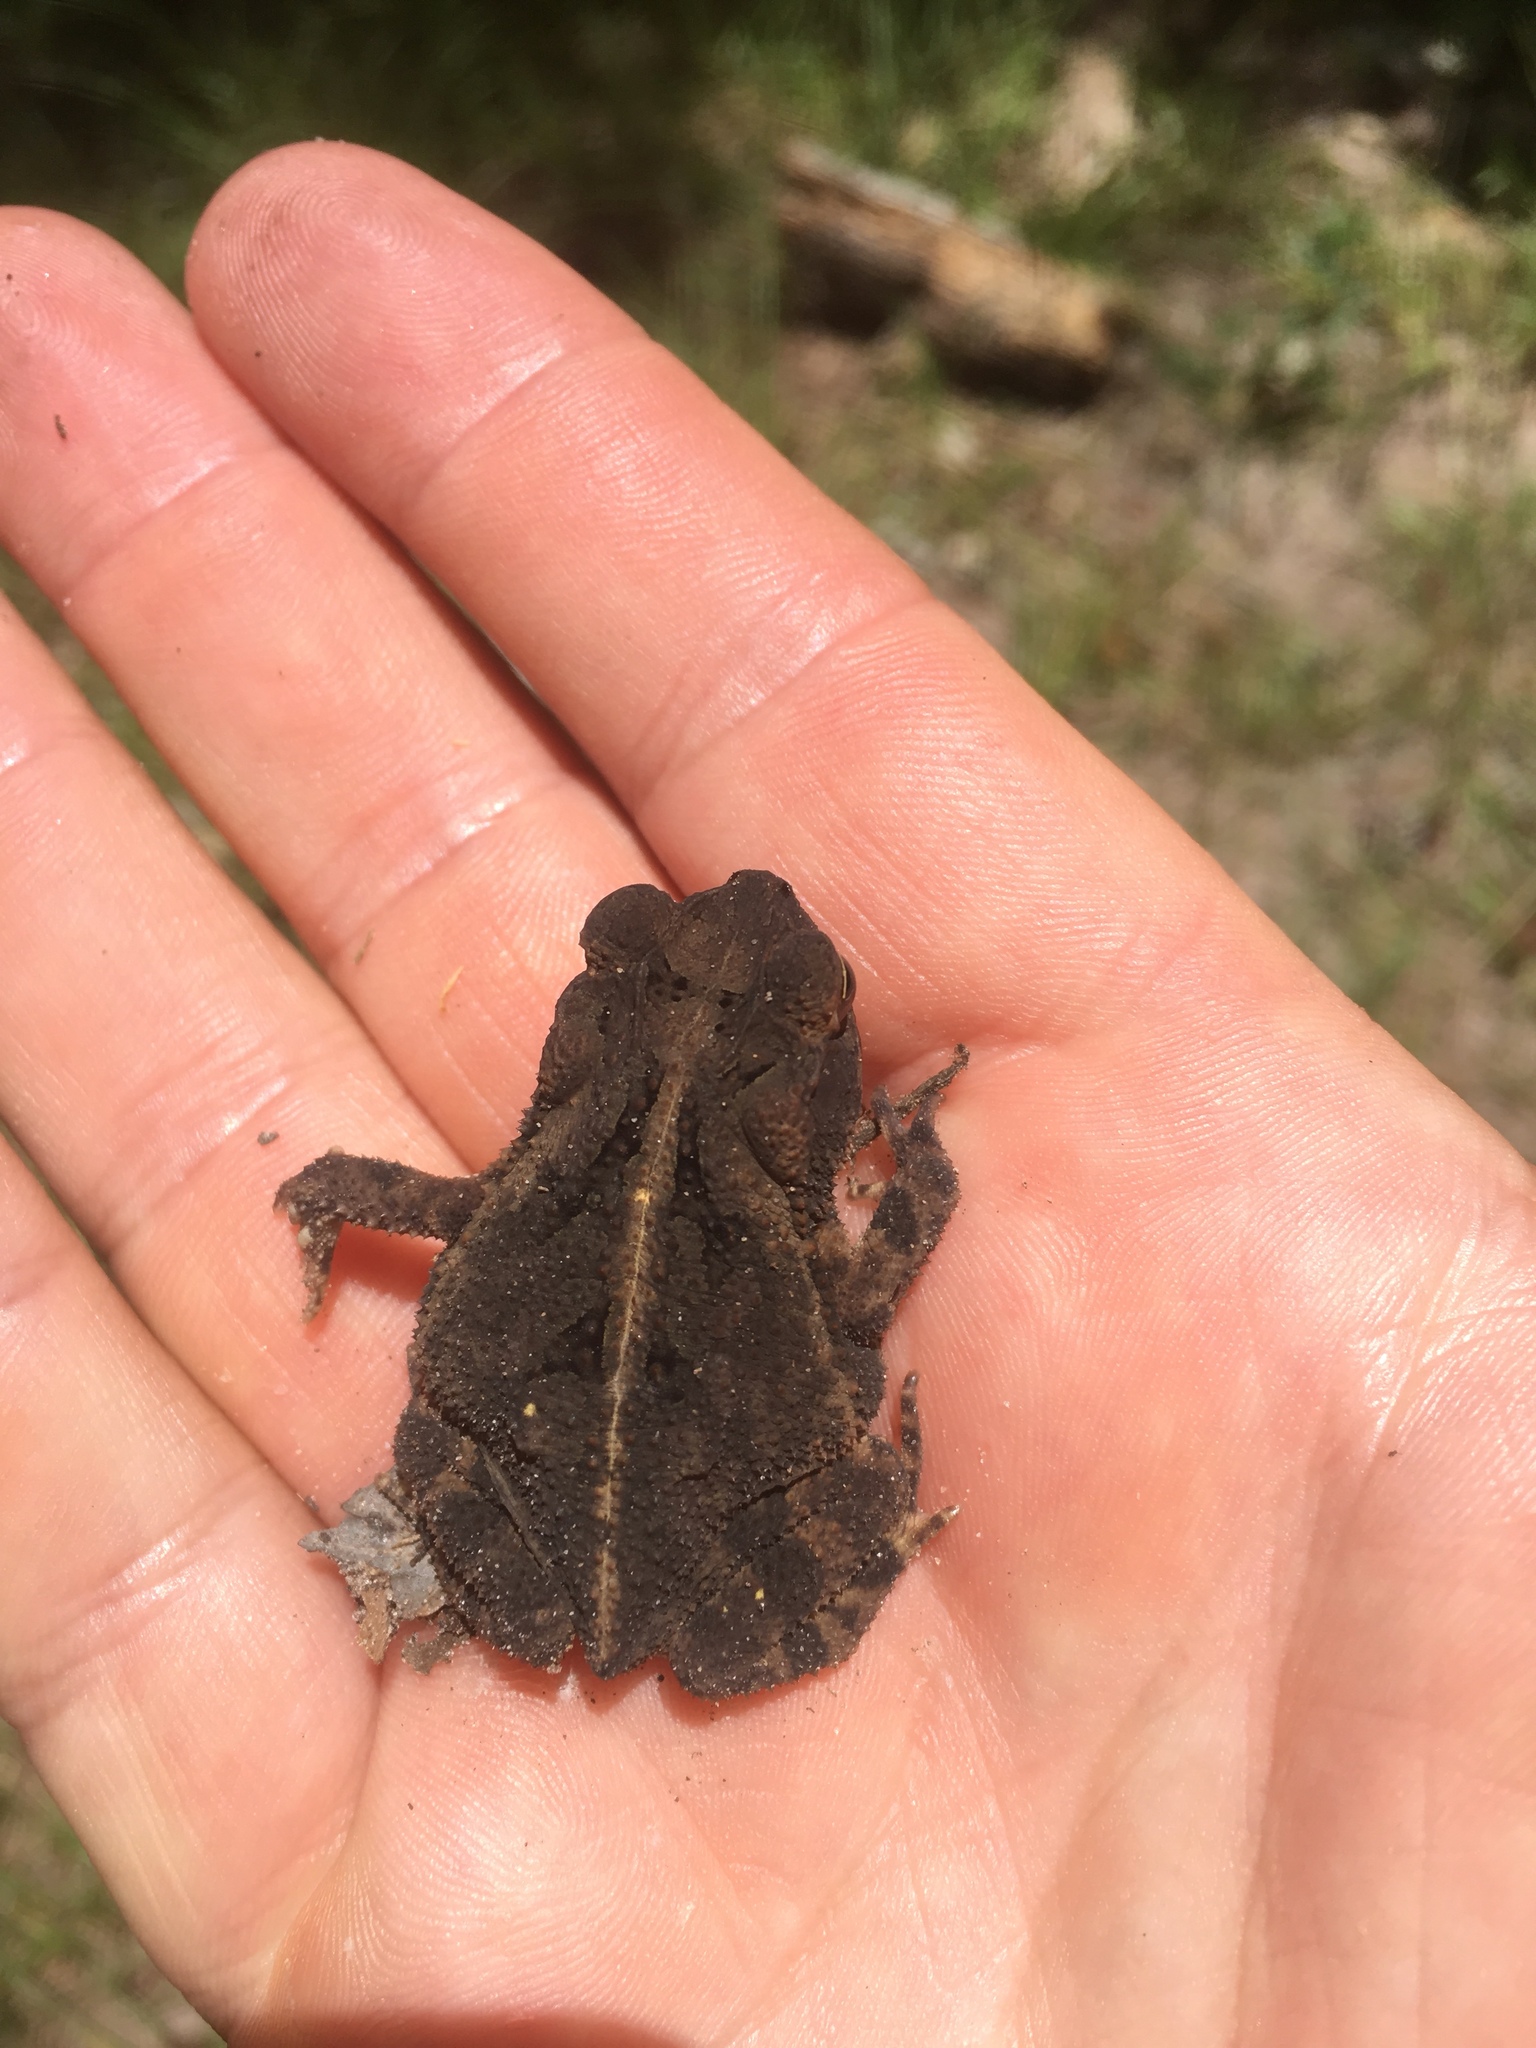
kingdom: Animalia
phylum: Chordata
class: Amphibia
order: Anura
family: Bufonidae
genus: Incilius
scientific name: Incilius nebulifer
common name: Gulf coast toad
